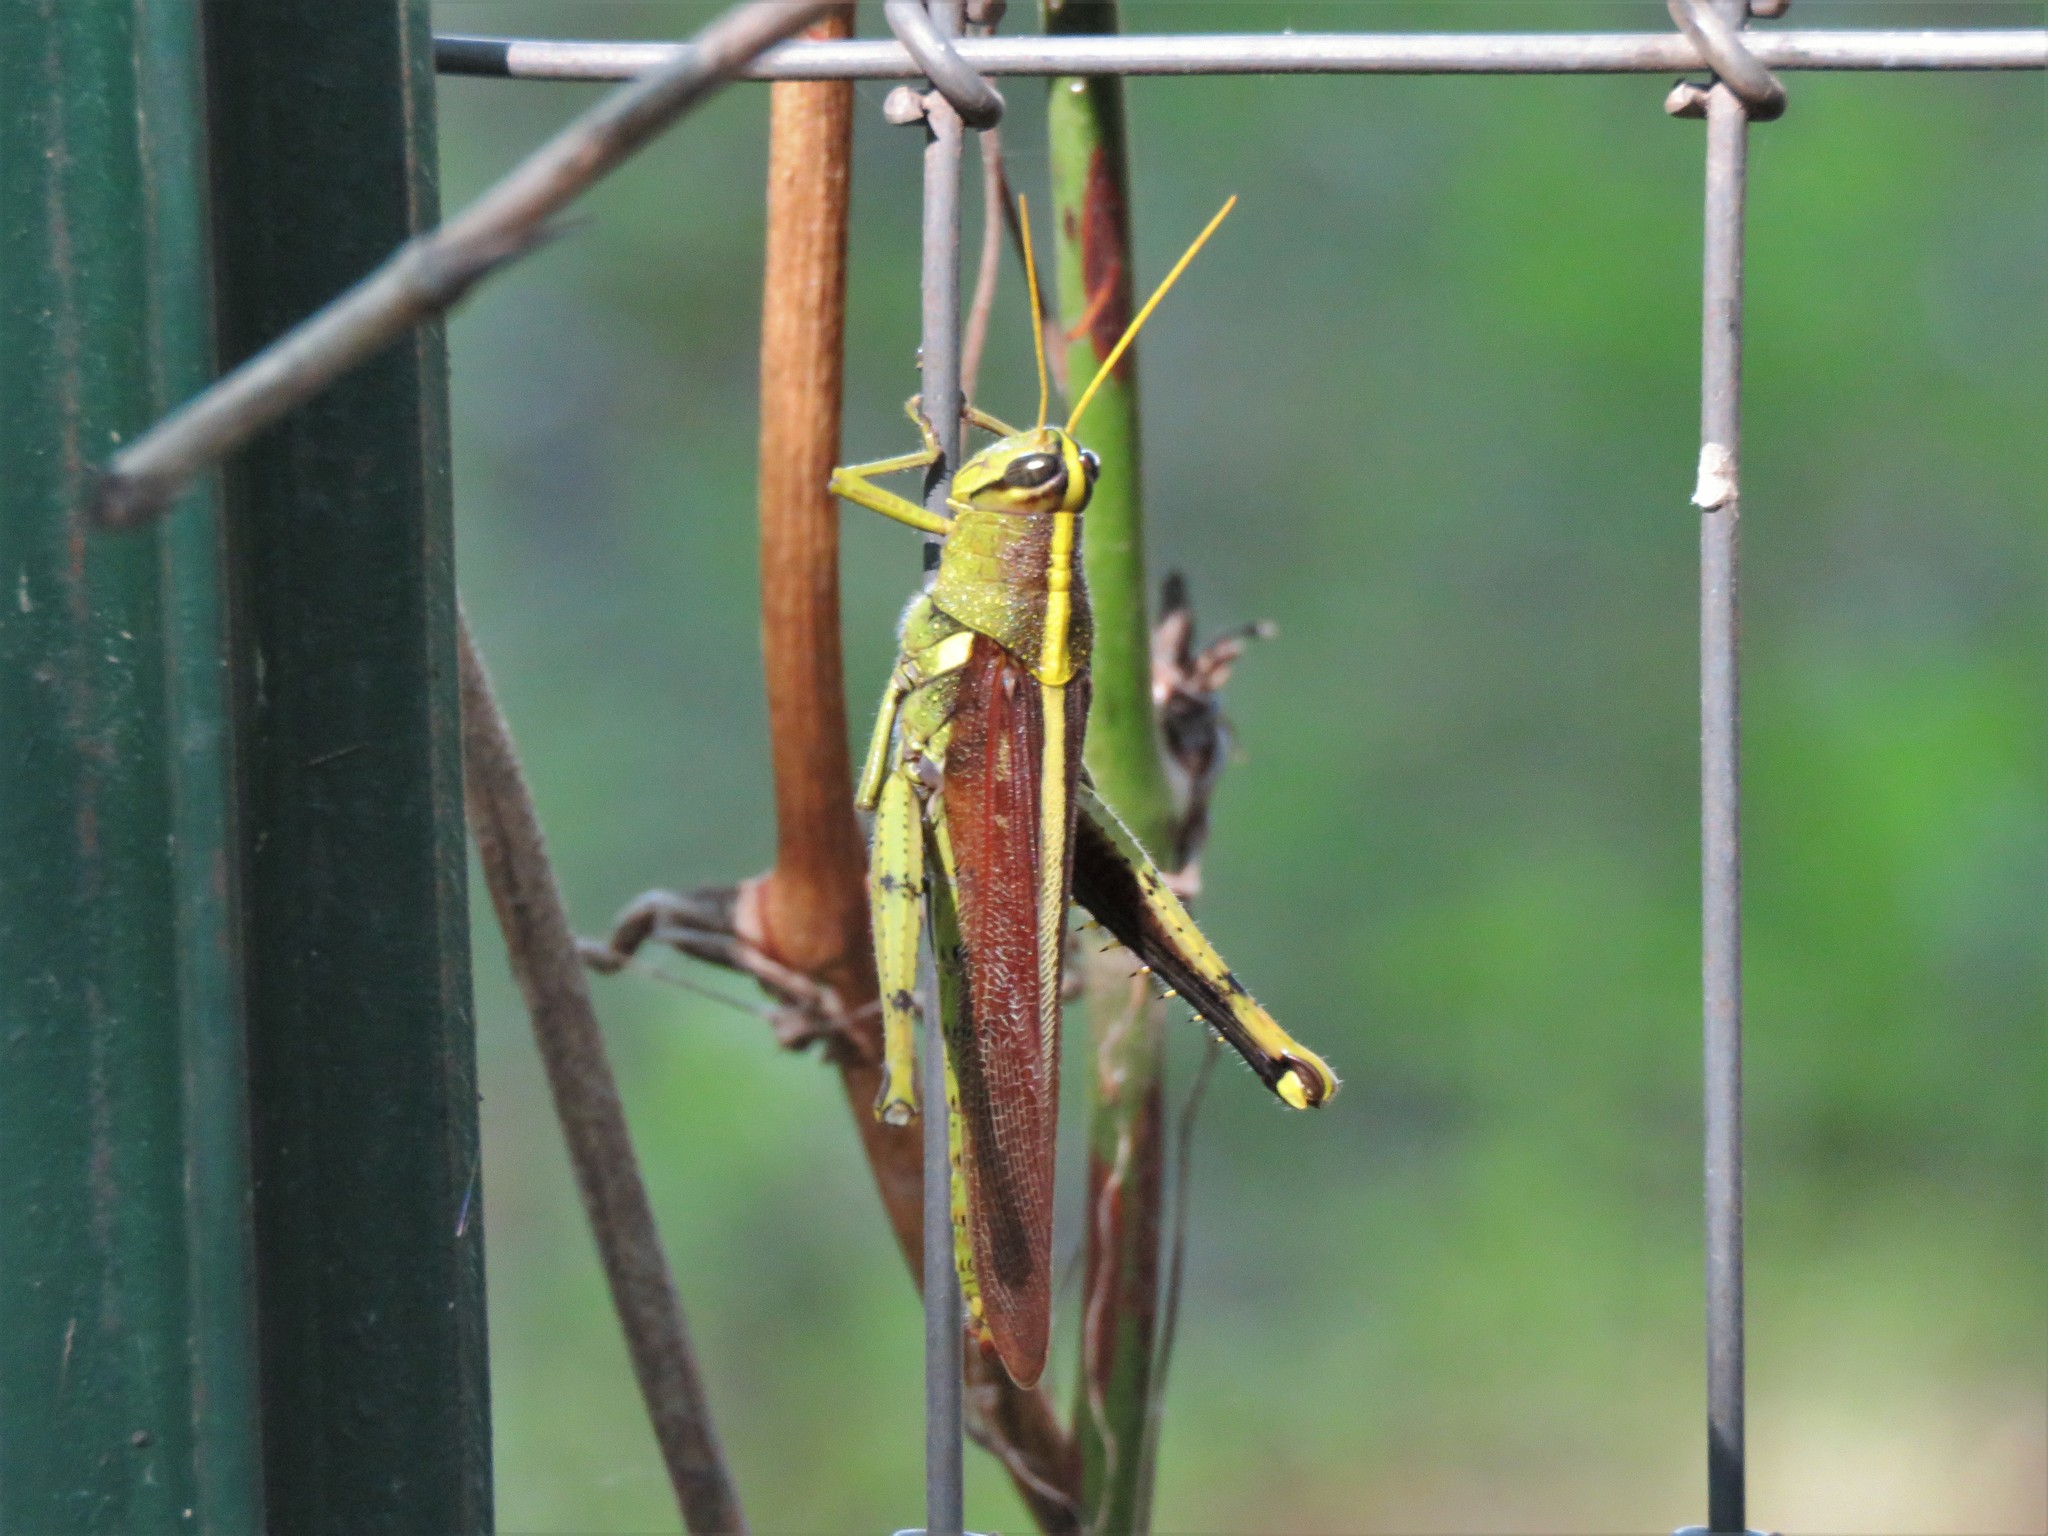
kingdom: Animalia
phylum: Arthropoda
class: Insecta
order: Orthoptera
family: Acrididae
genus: Schistocerca
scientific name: Schistocerca obscura
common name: Obscure bird grasshopper
